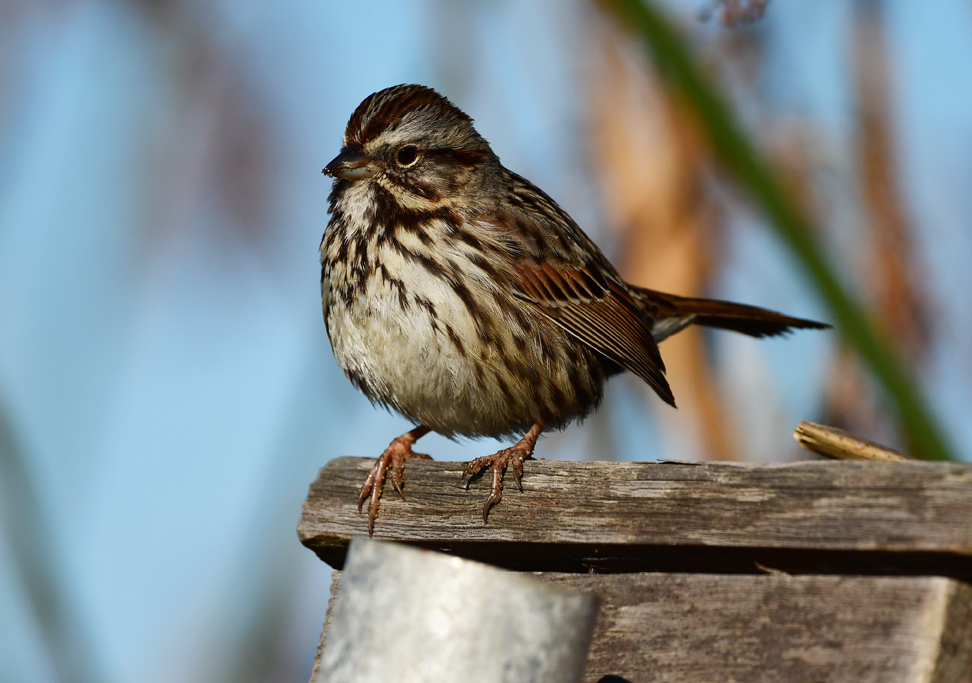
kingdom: Animalia
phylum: Chordata
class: Aves
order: Passeriformes
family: Passerellidae
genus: Melospiza
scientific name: Melospiza melodia
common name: Song sparrow
